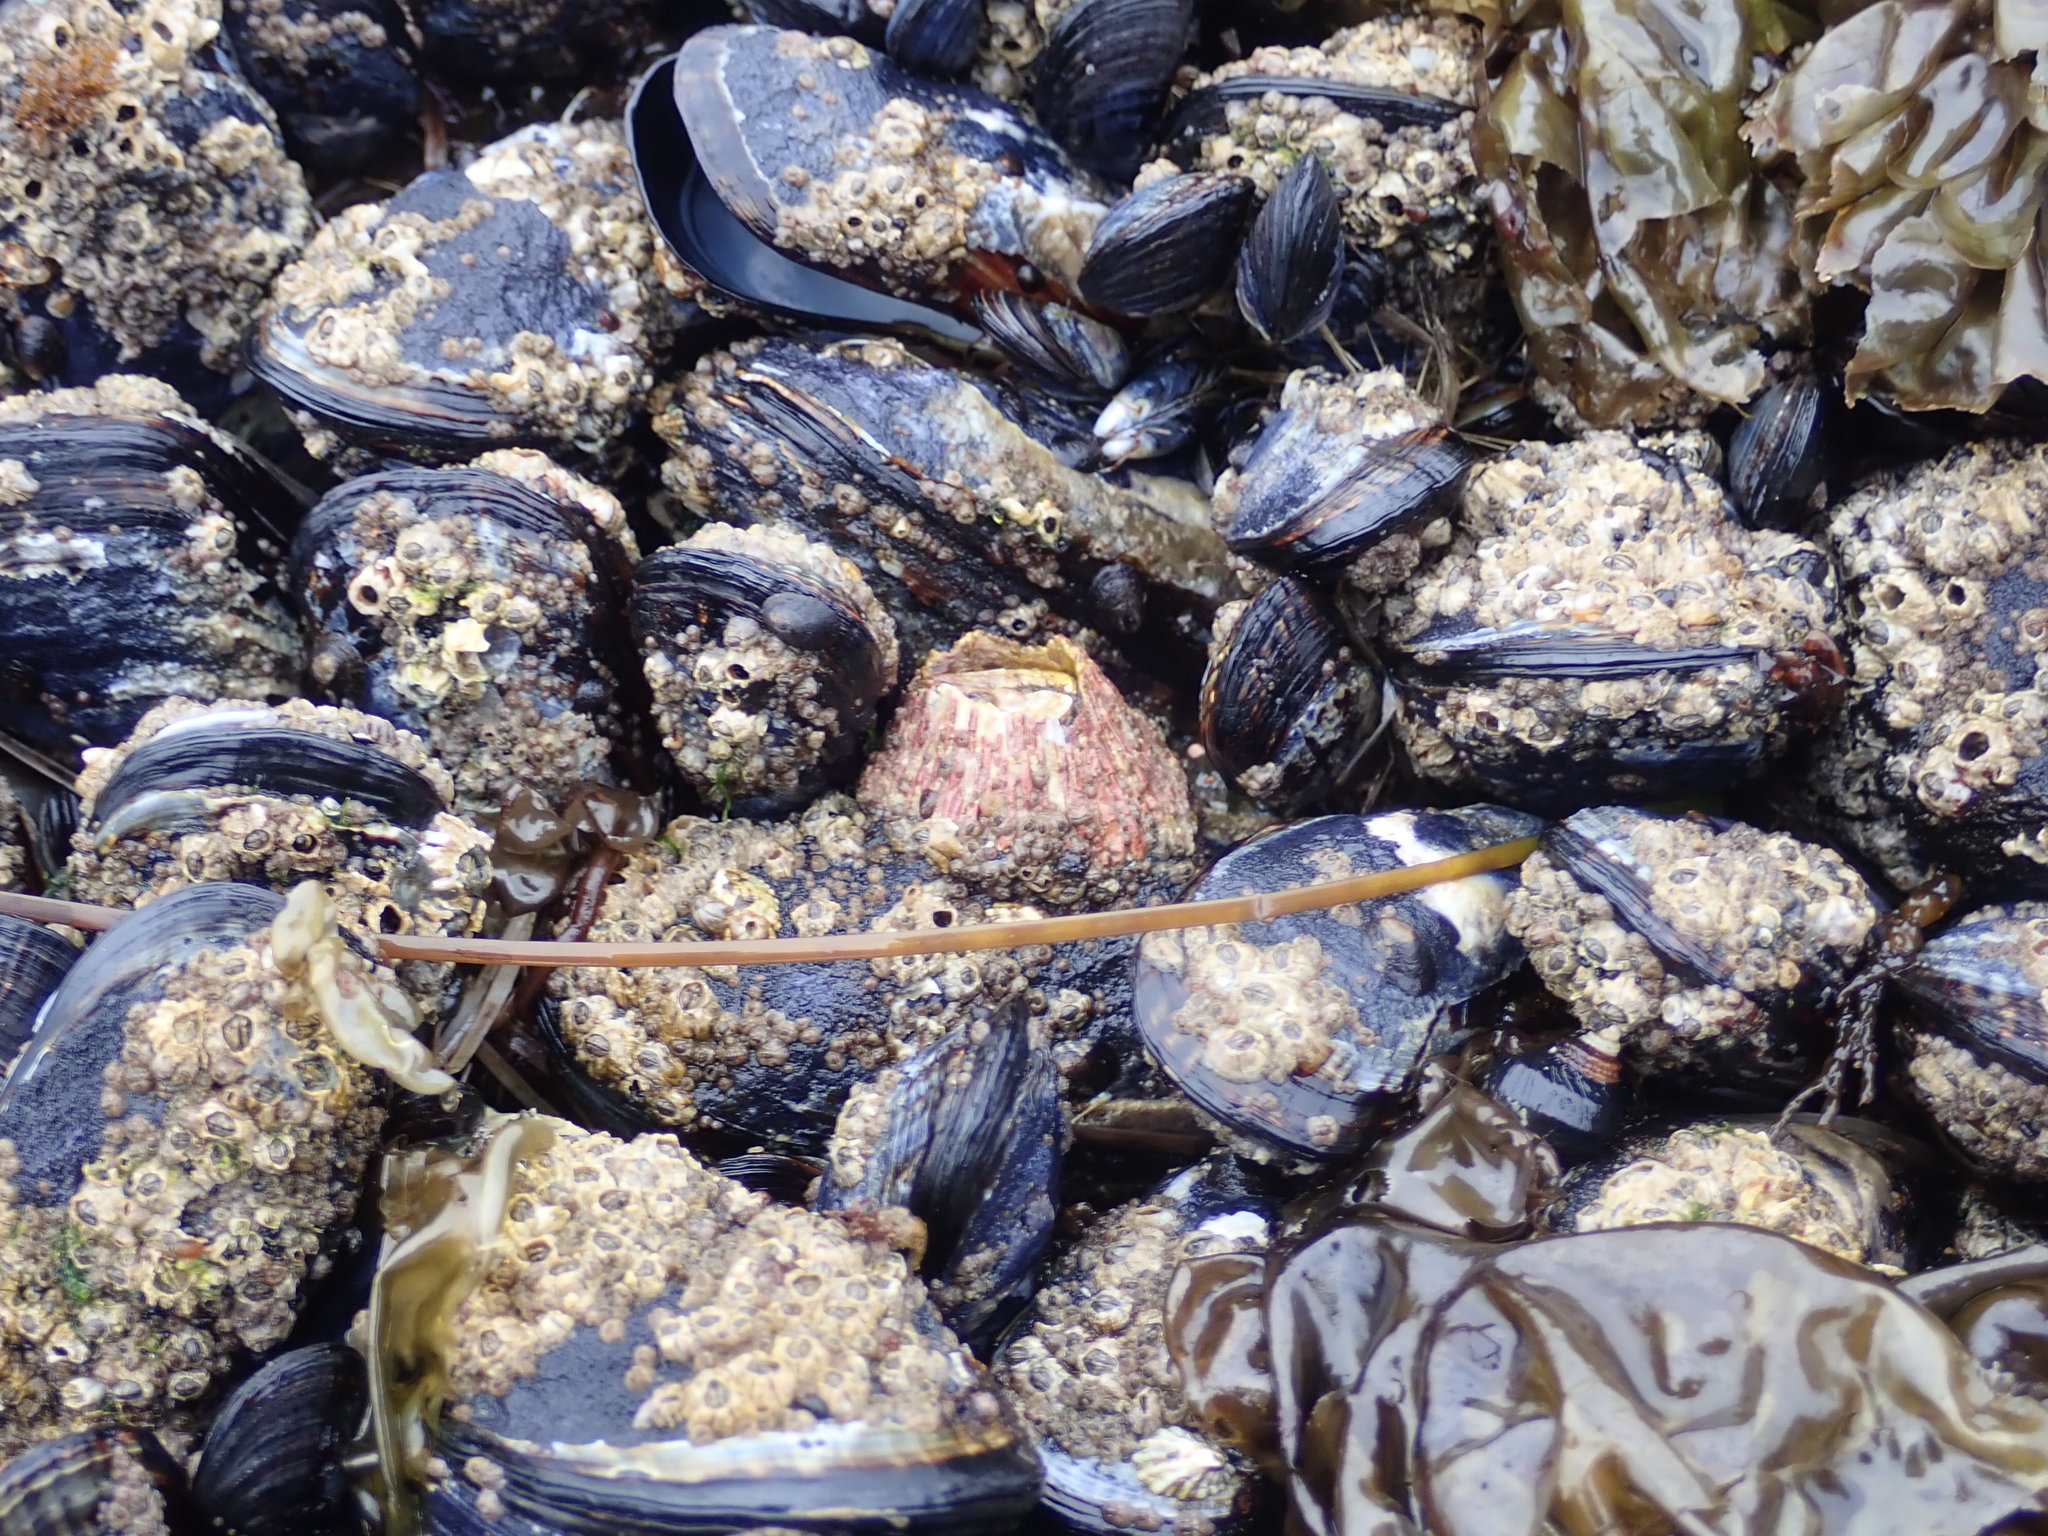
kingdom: Animalia
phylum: Arthropoda
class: Maxillopoda
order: Sessilia
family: Tetraclitidae
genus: Tetraclita
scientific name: Tetraclita rubescens
